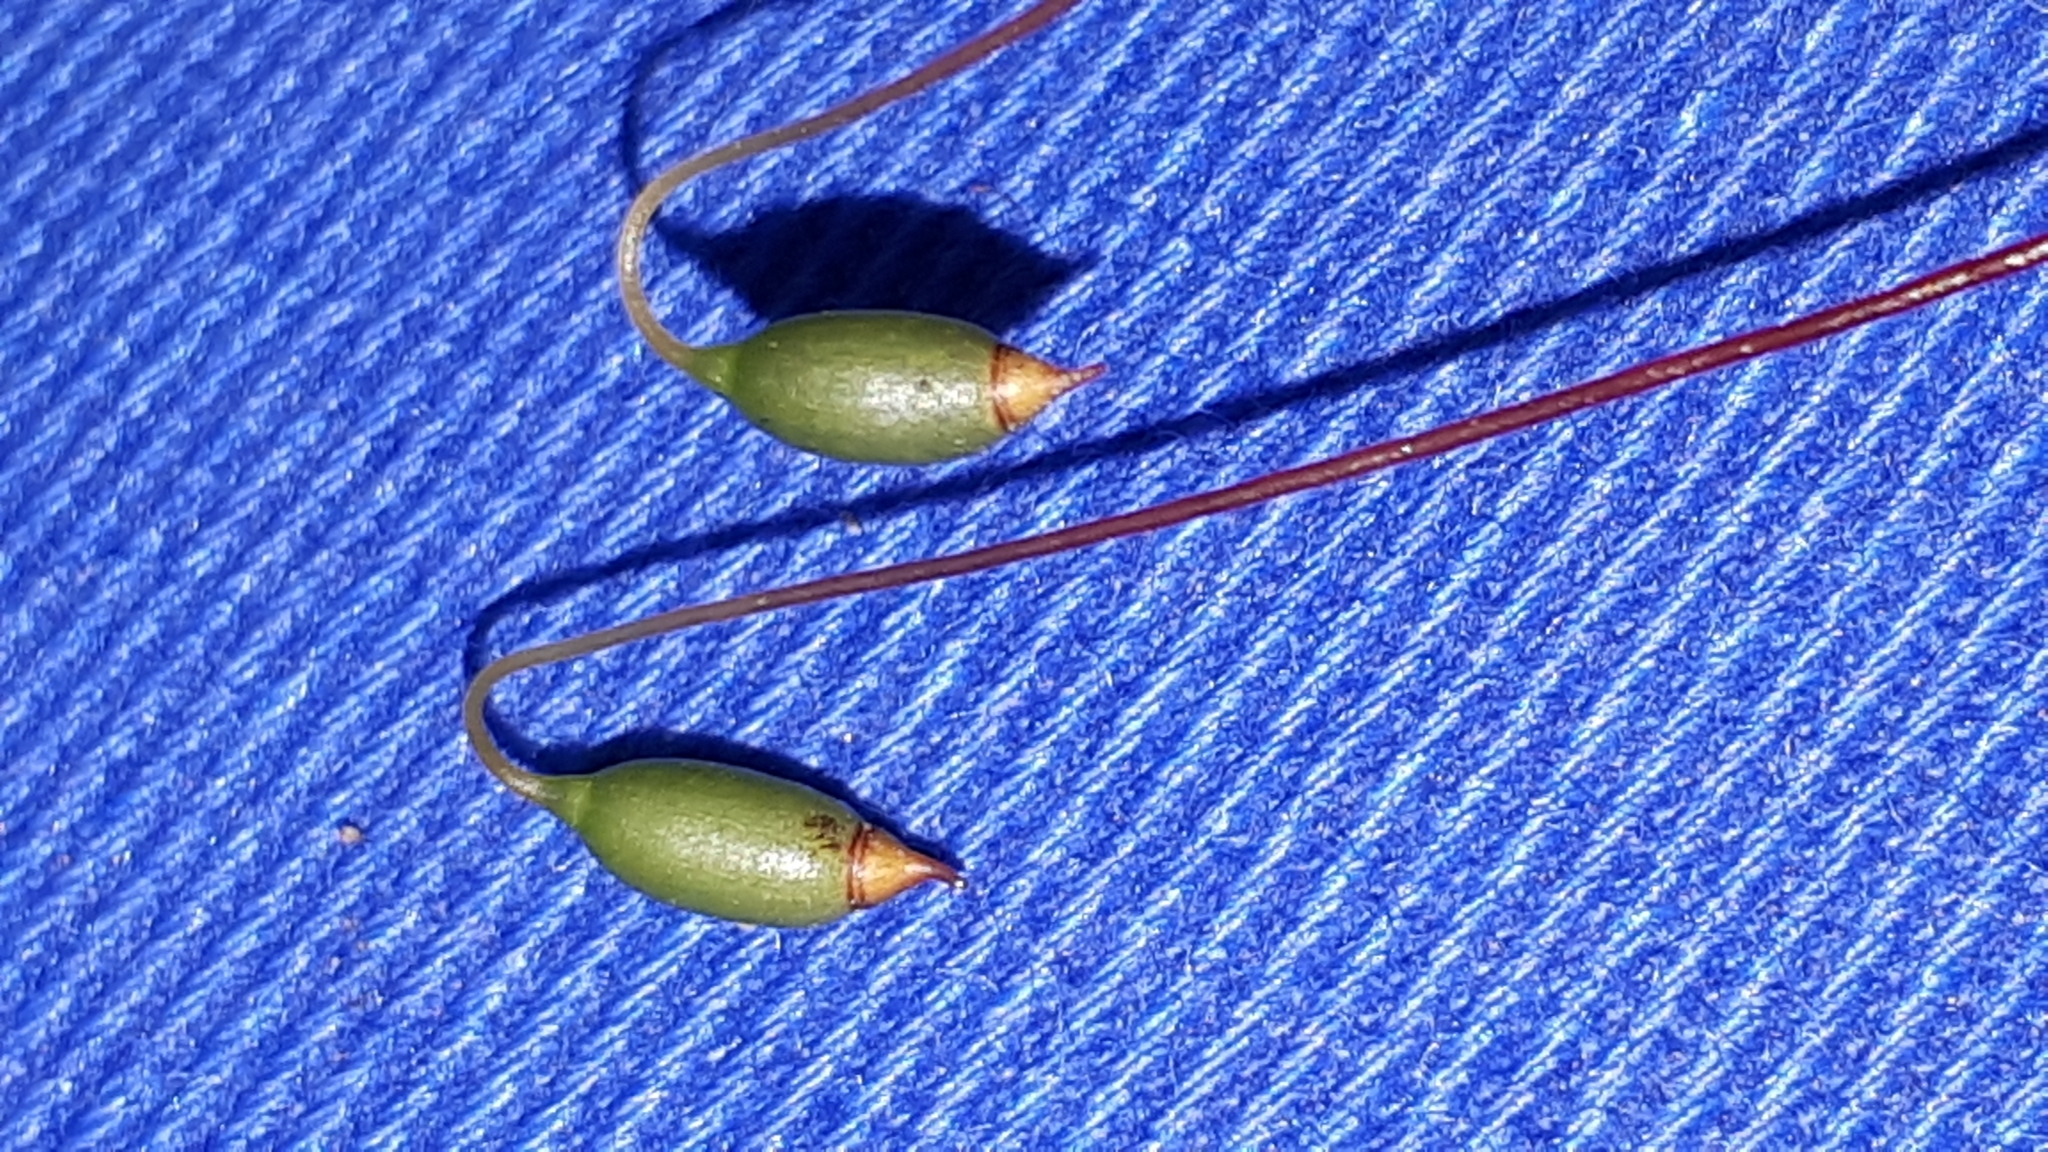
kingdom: Plantae
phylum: Bryophyta
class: Bryopsida
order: Bryales
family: Mniaceae
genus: Rhizomnium
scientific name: Rhizomnium punctatum
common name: Dotted leafy moss
